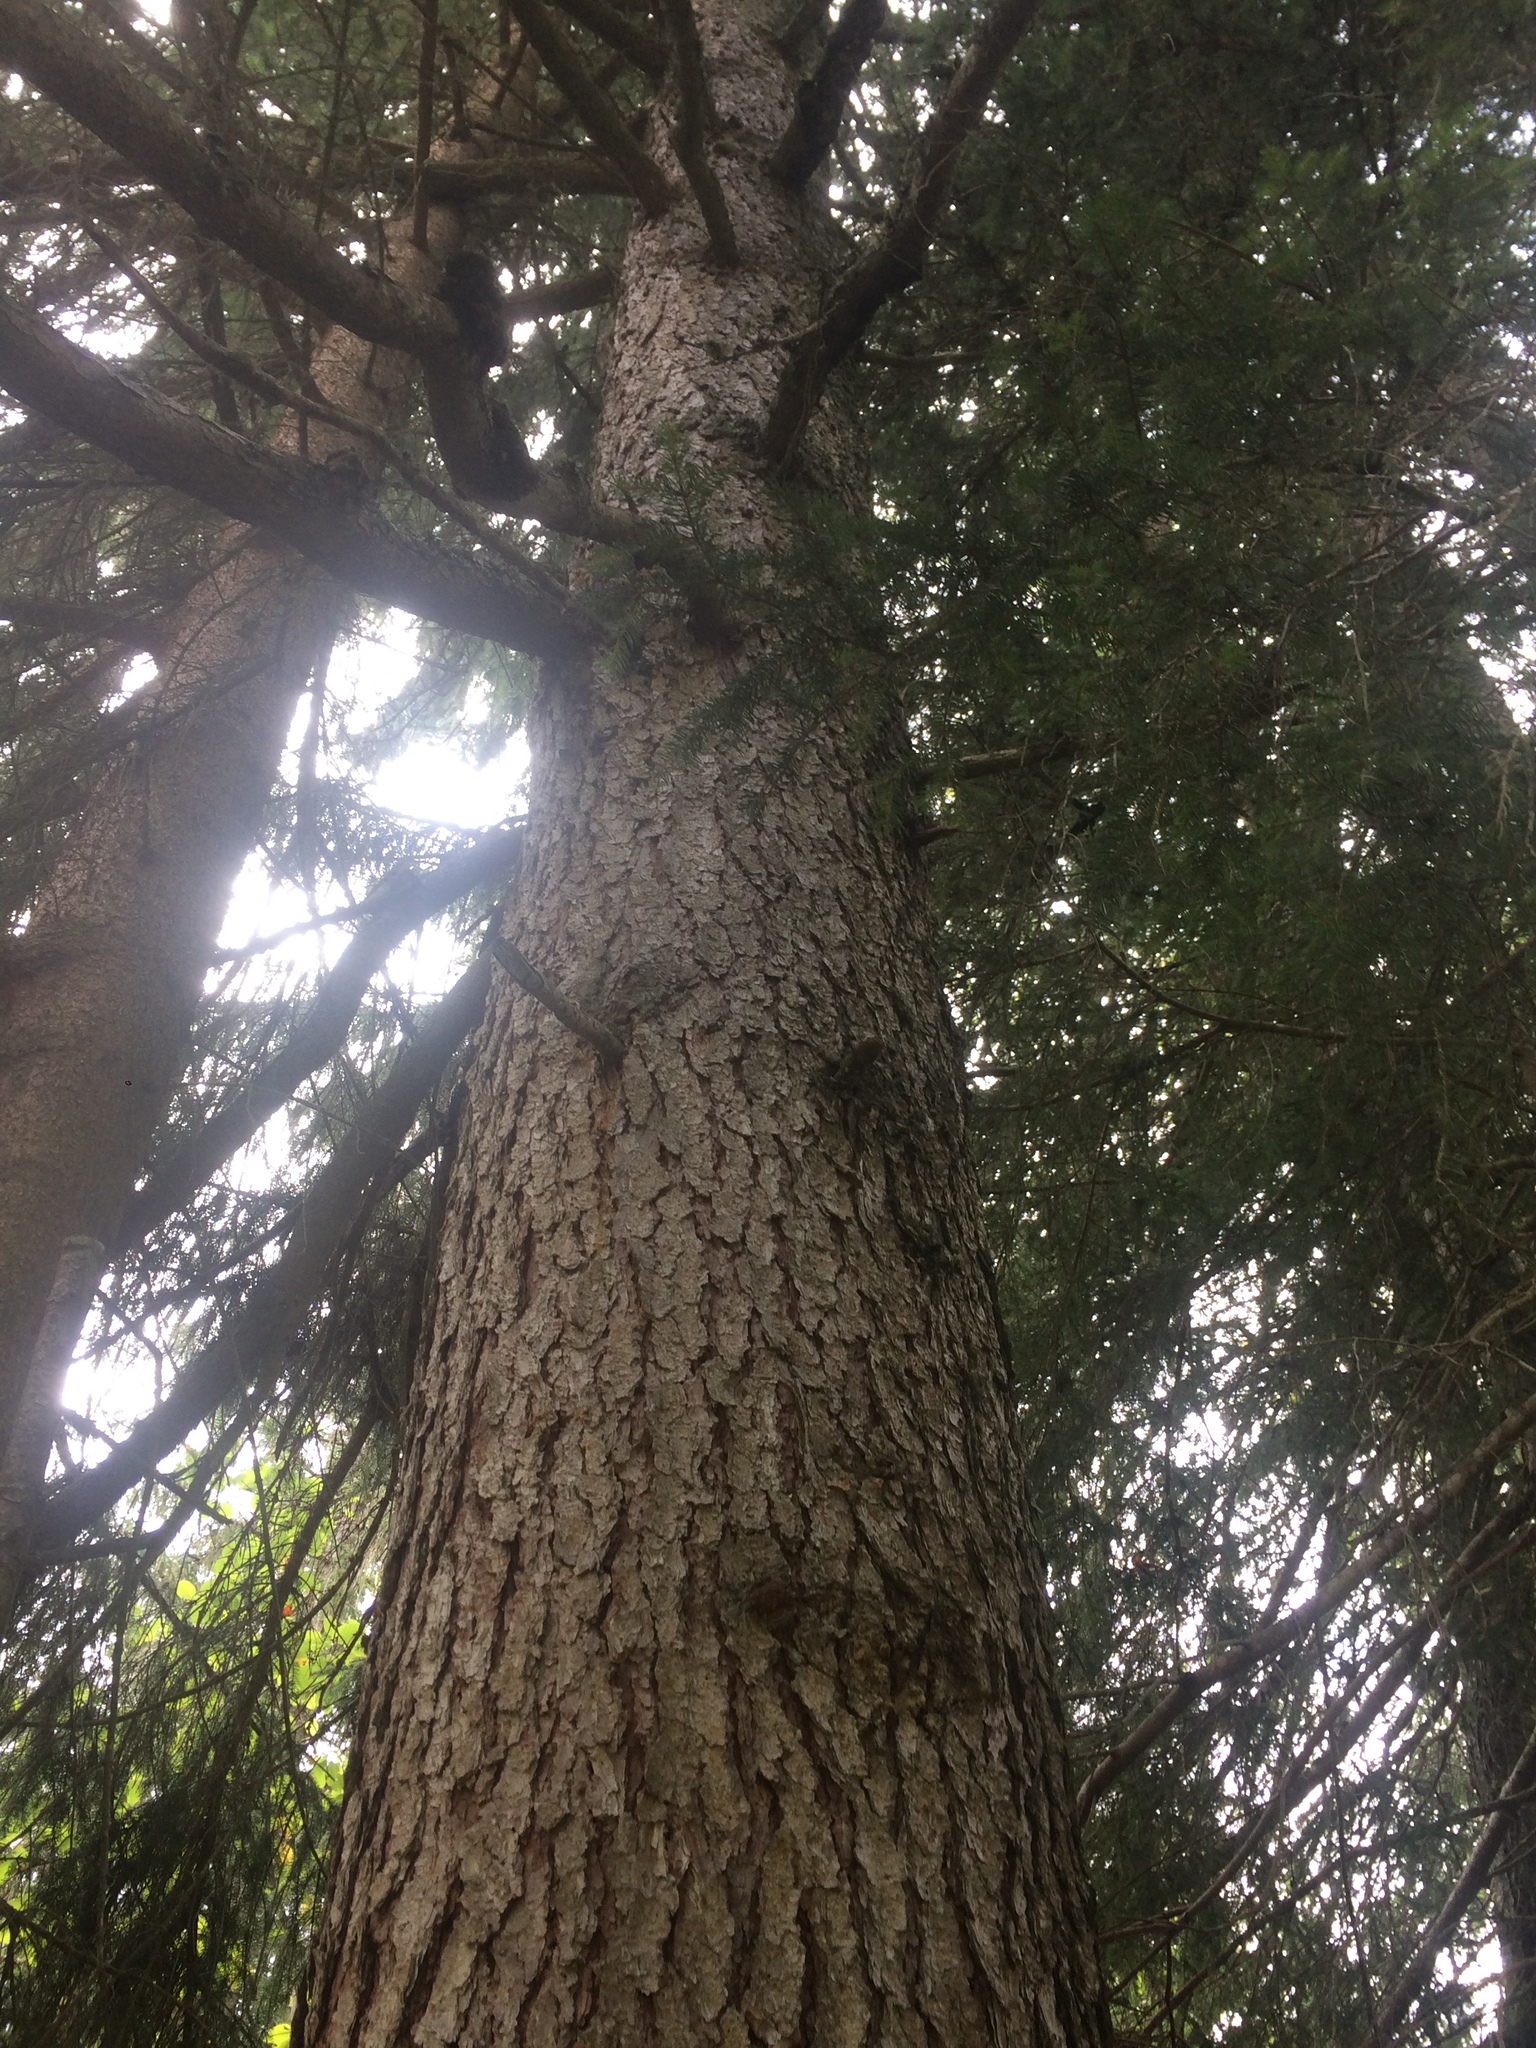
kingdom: Plantae
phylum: Tracheophyta
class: Pinopsida
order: Pinales
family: Pinaceae
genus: Picea
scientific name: Picea abies
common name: Norway spruce
